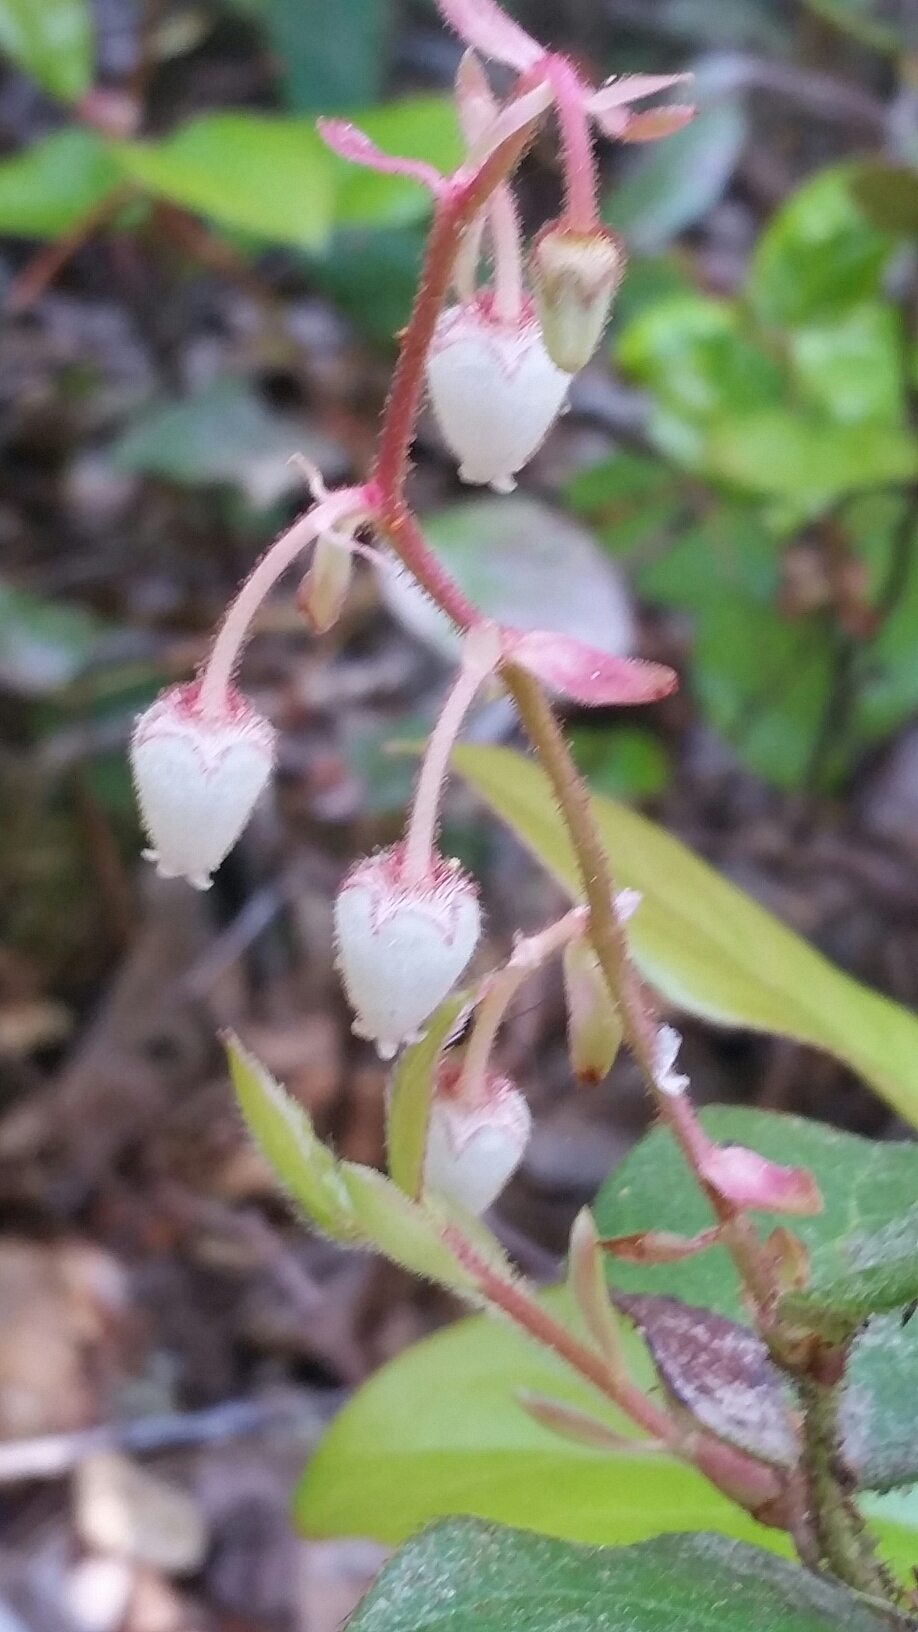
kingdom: Plantae
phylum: Tracheophyta
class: Magnoliopsida
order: Ericales
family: Ericaceae
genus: Gaultheria
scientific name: Gaultheria shallon
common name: Shallon
